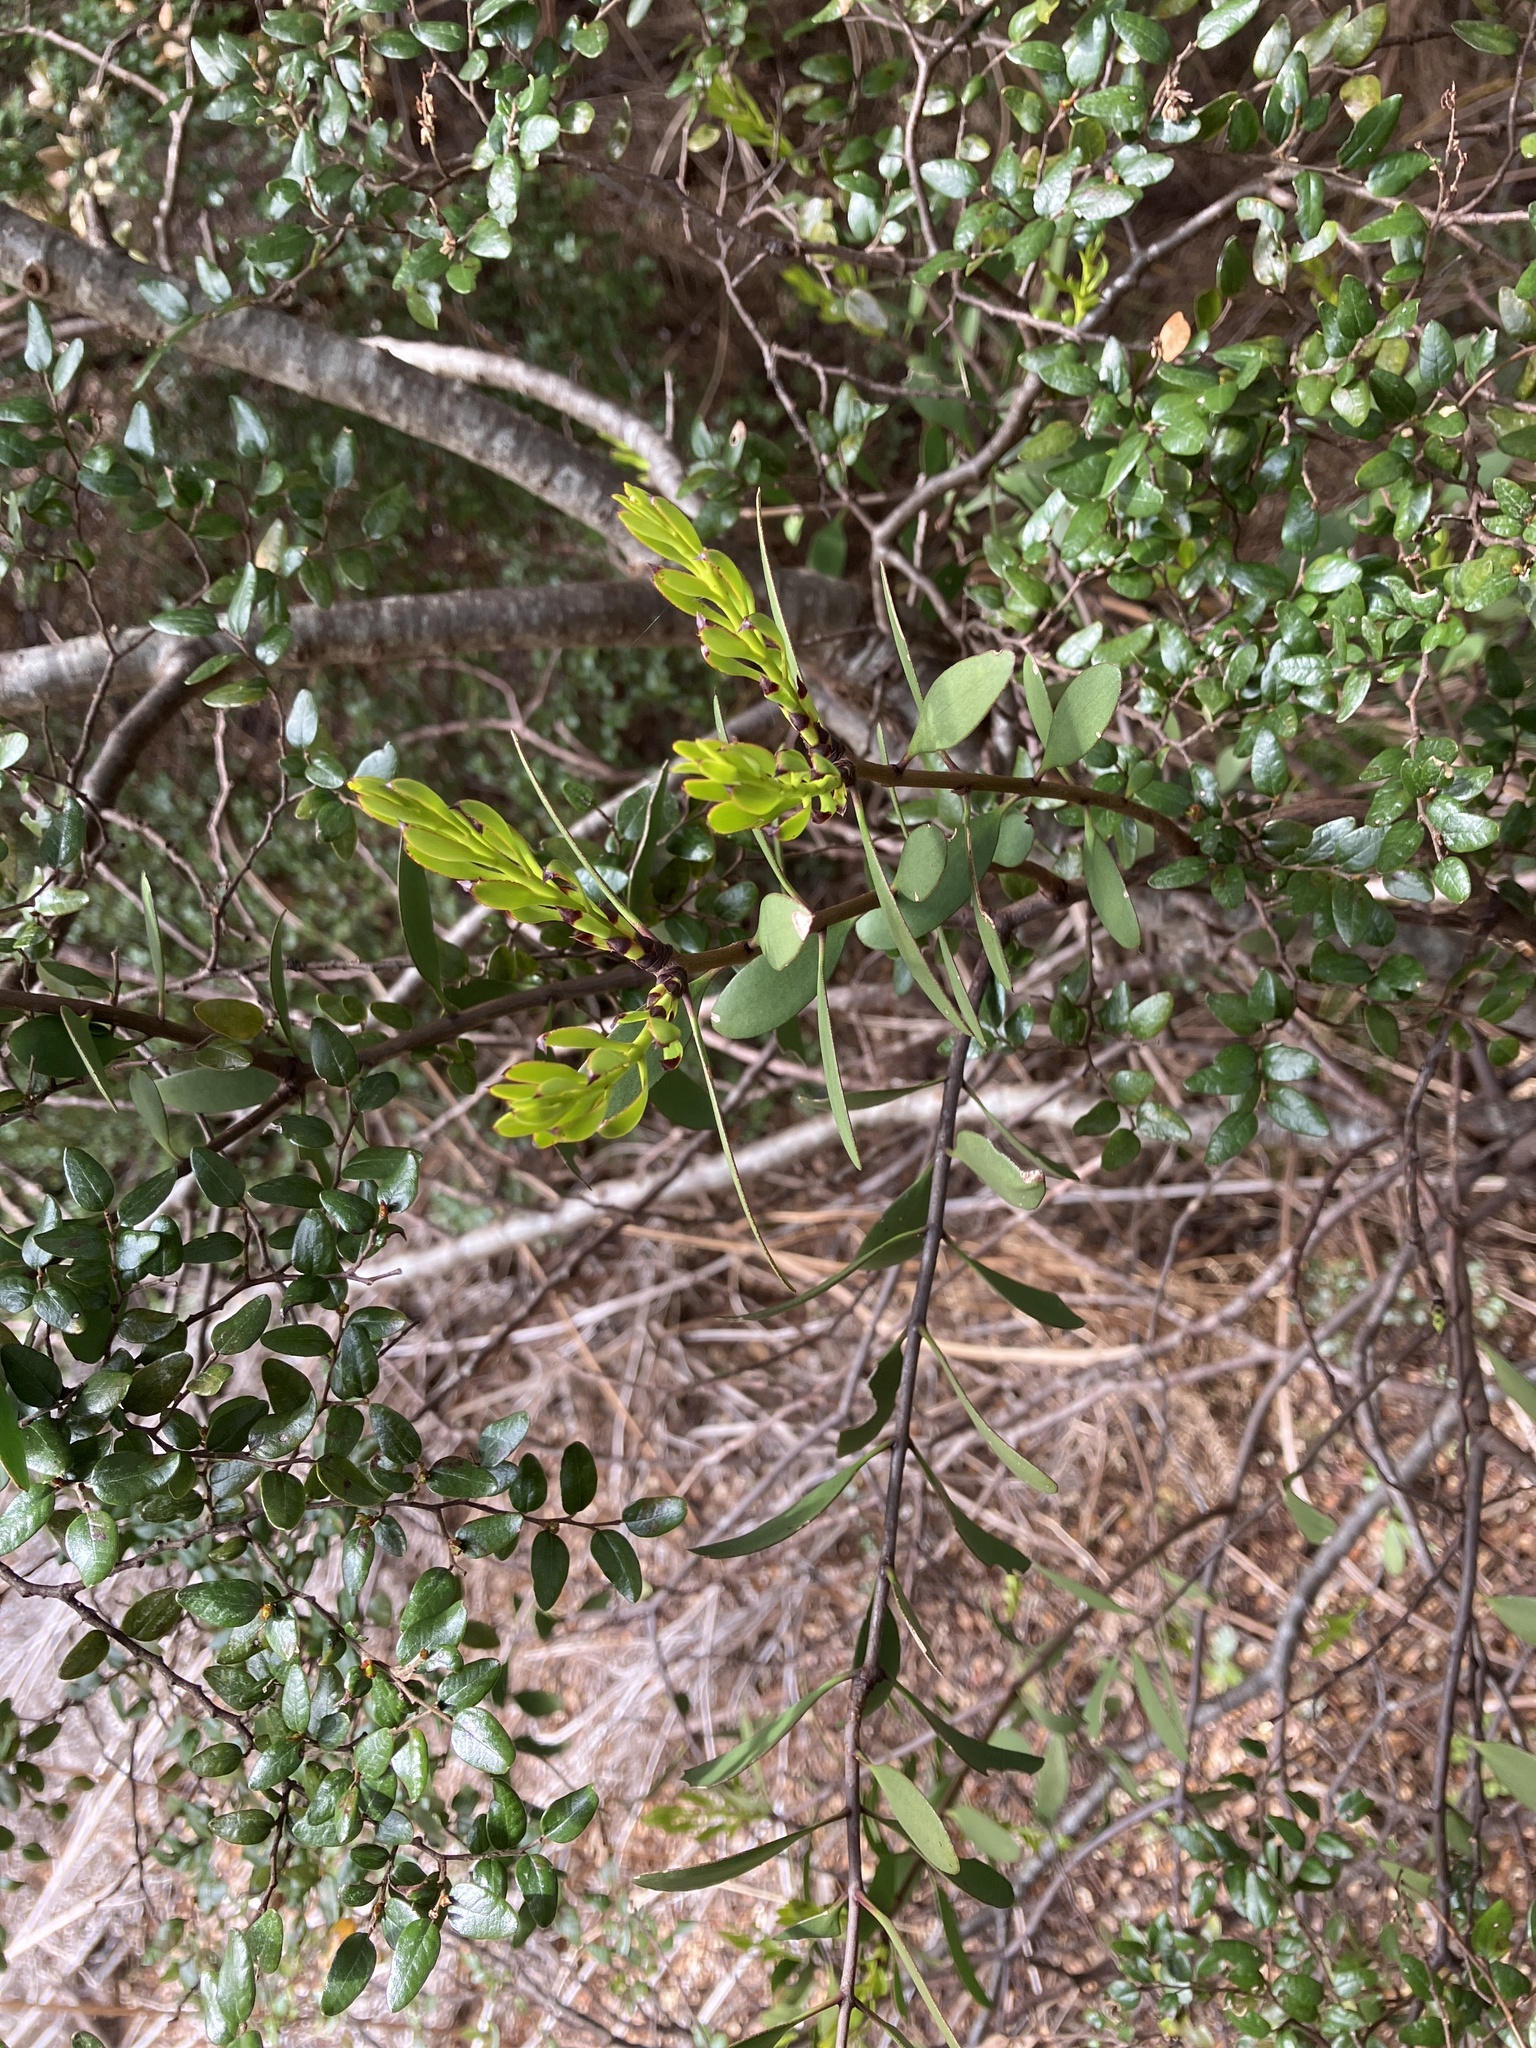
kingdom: Plantae
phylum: Tracheophyta
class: Magnoliopsida
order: Santalales
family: Loranthaceae
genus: Alepis
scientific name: Alepis flavida
